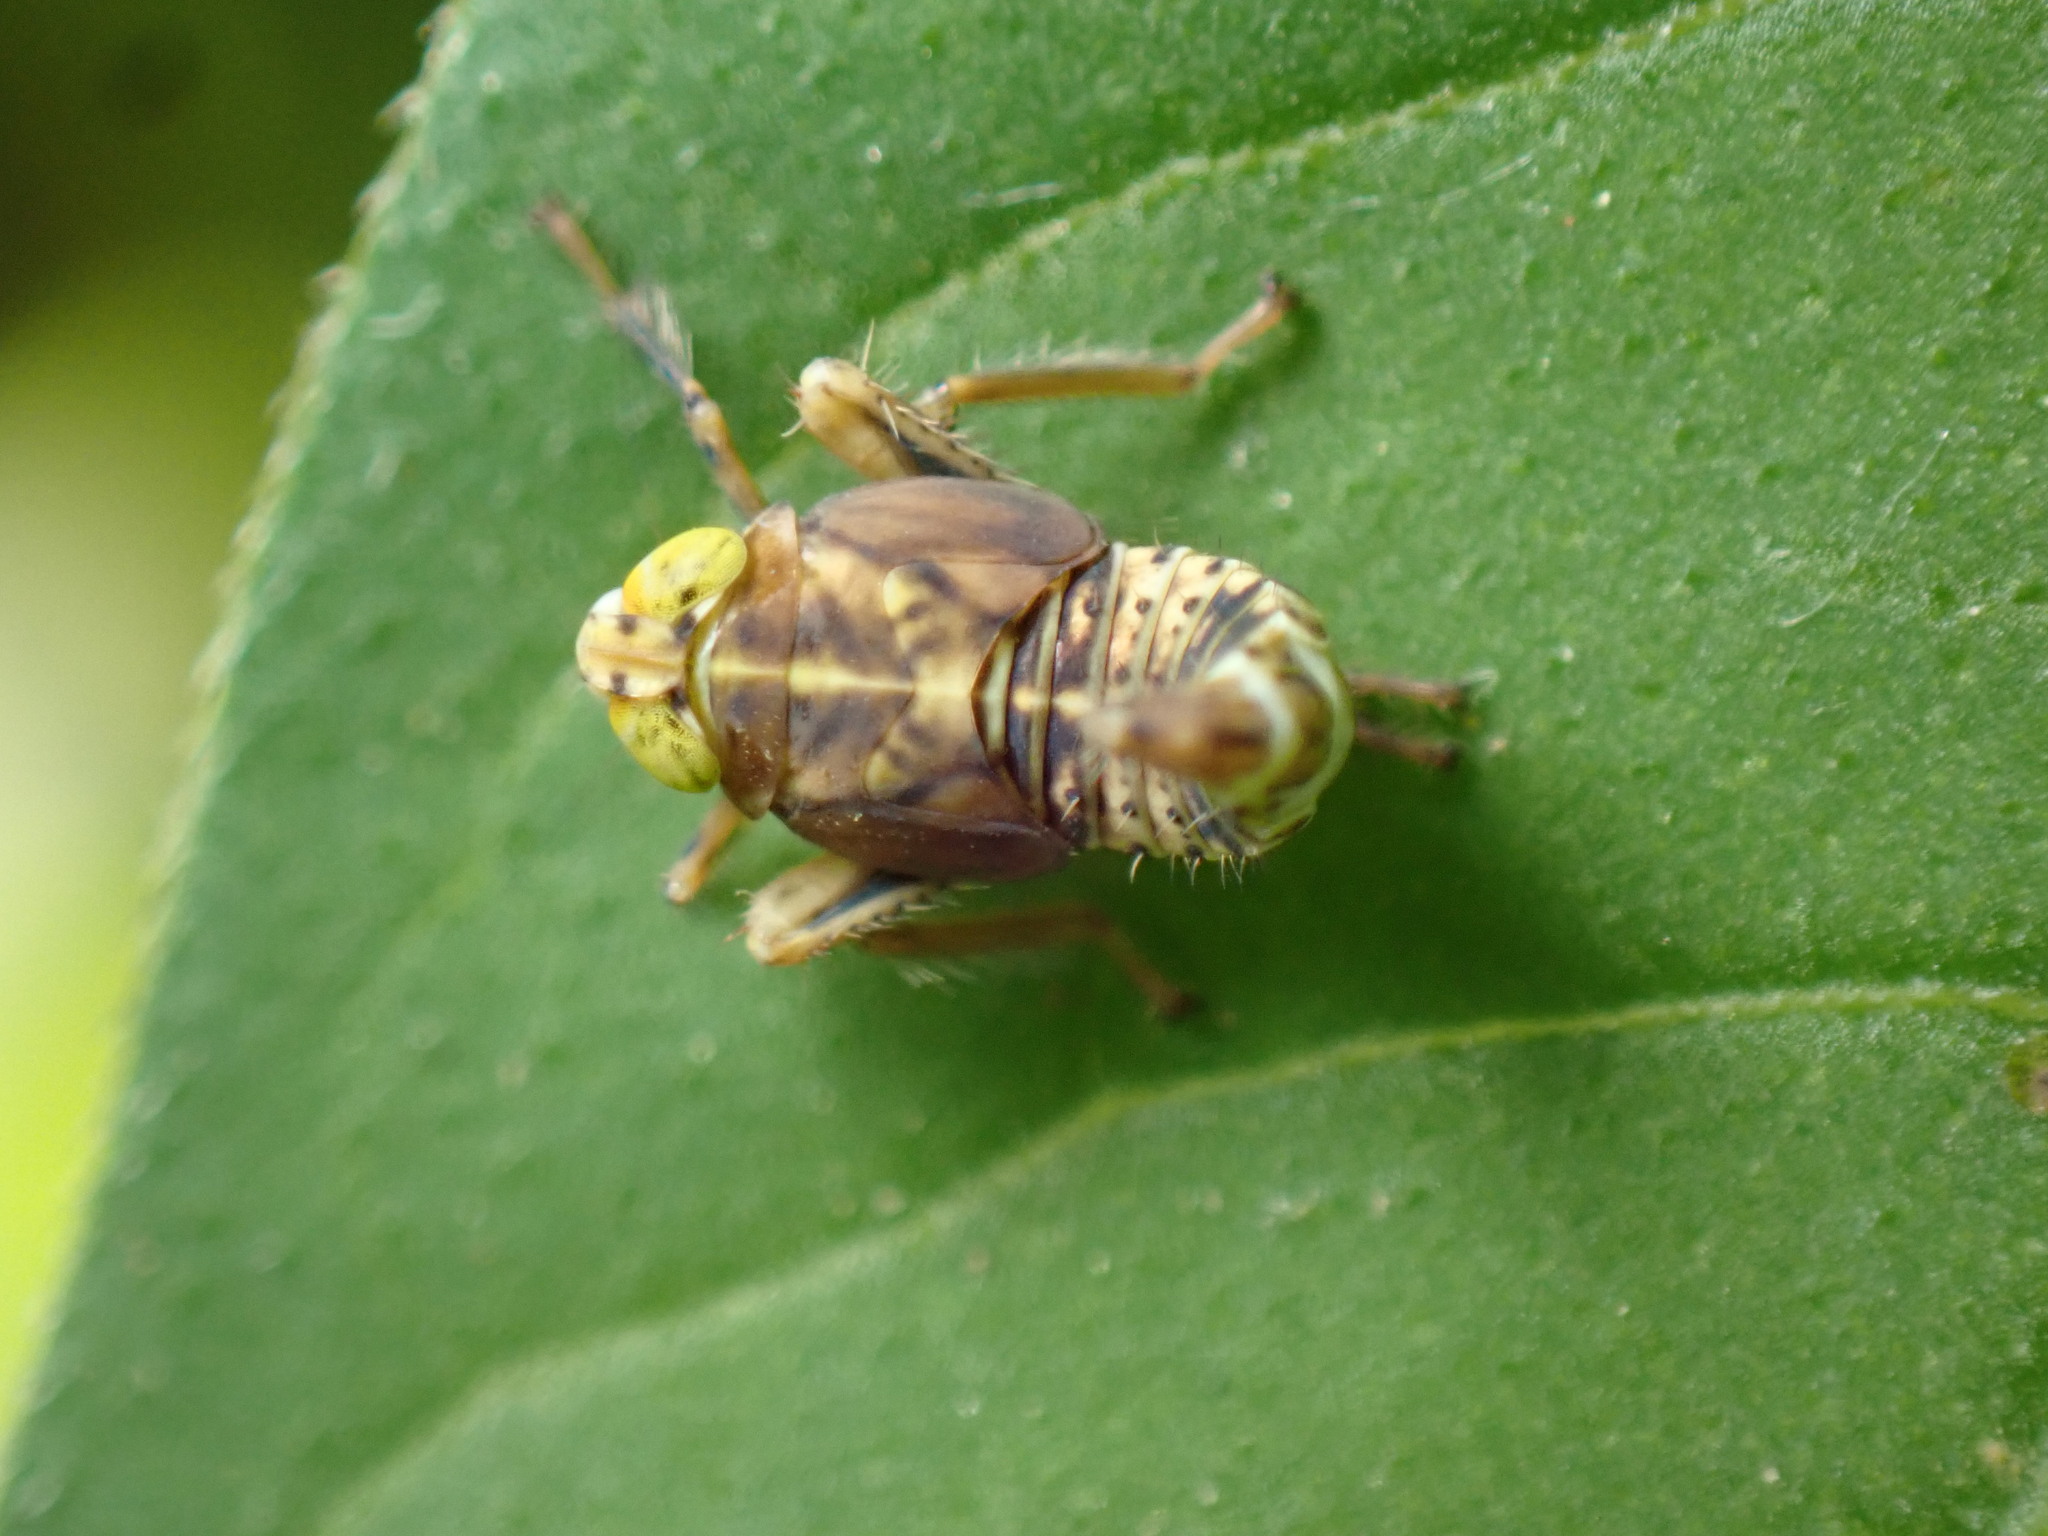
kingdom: Animalia
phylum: Arthropoda
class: Insecta
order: Hemiptera
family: Cicadellidae
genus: Jikradia
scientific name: Jikradia olitoria
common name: Coppery leafhopper
